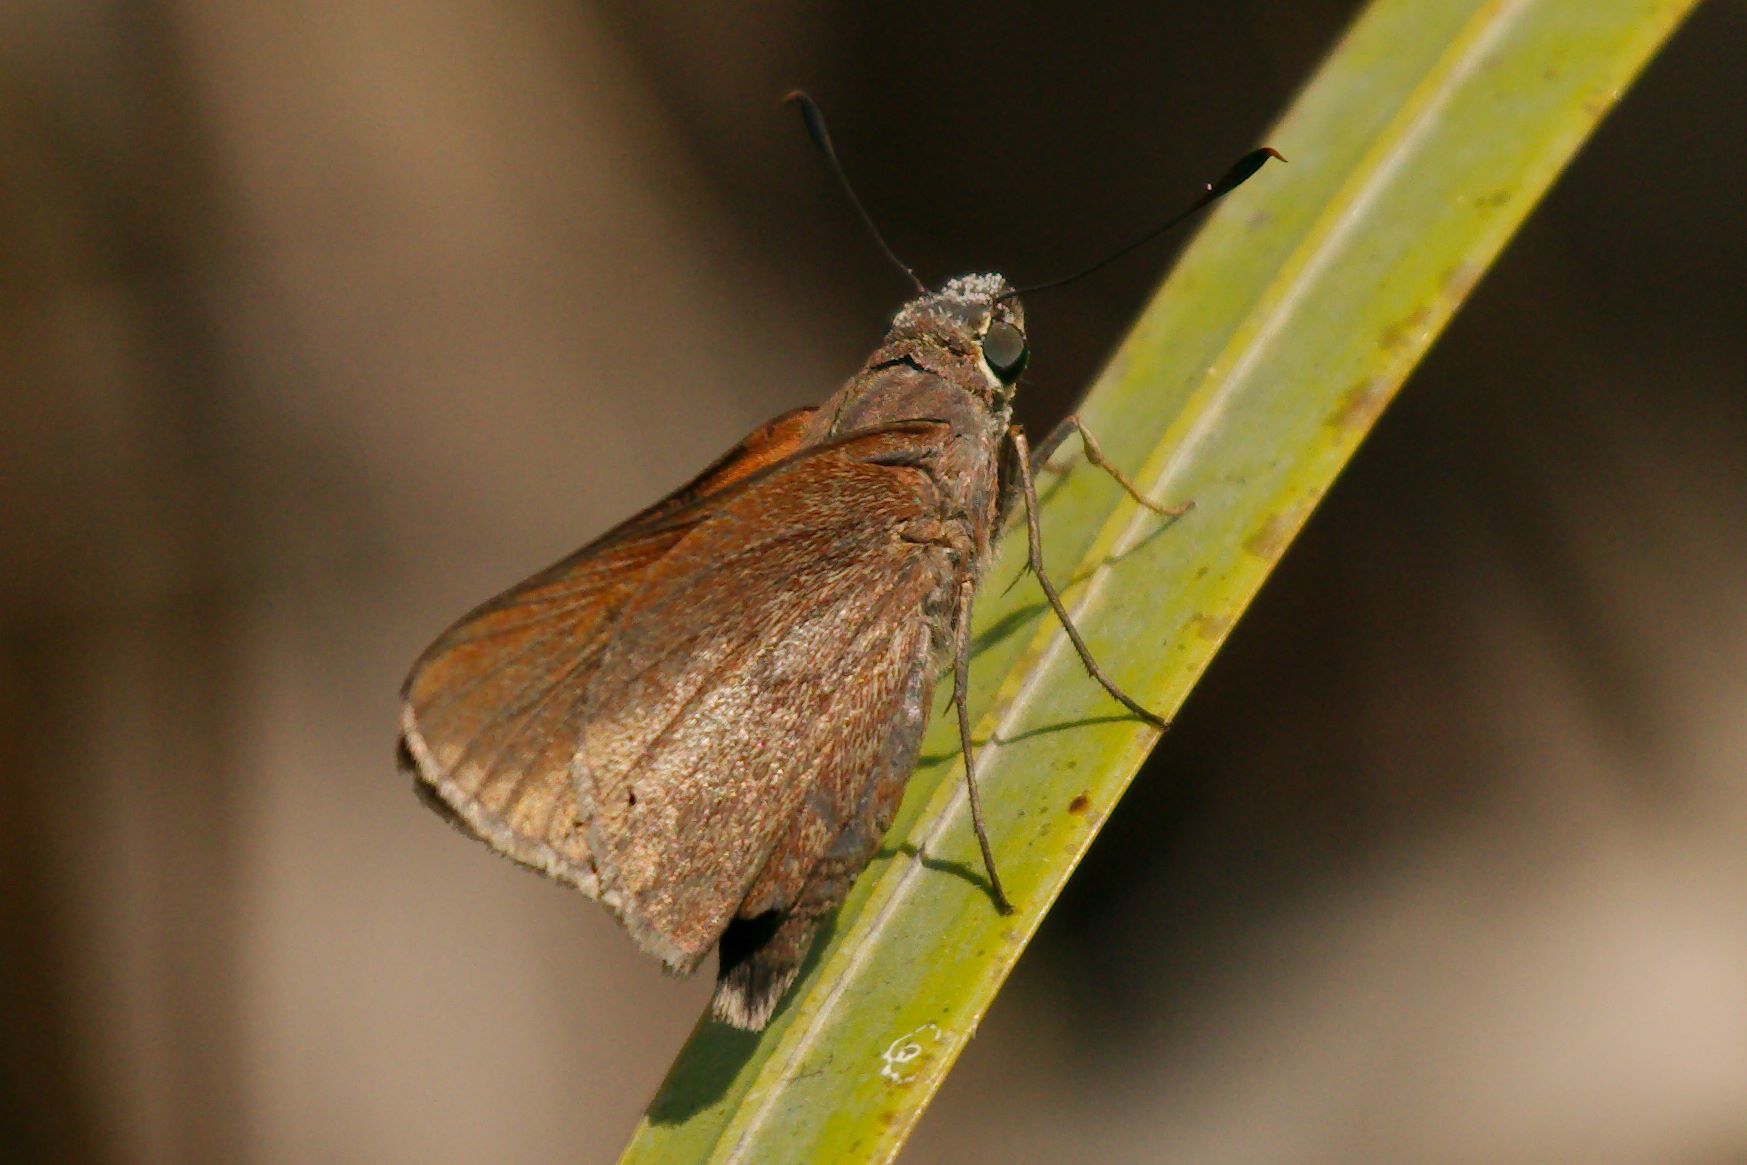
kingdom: Animalia
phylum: Arthropoda
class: Insecta
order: Lepidoptera
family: Hesperiidae
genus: Asbolis
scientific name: Asbolis capucinus
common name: Monk skipper
